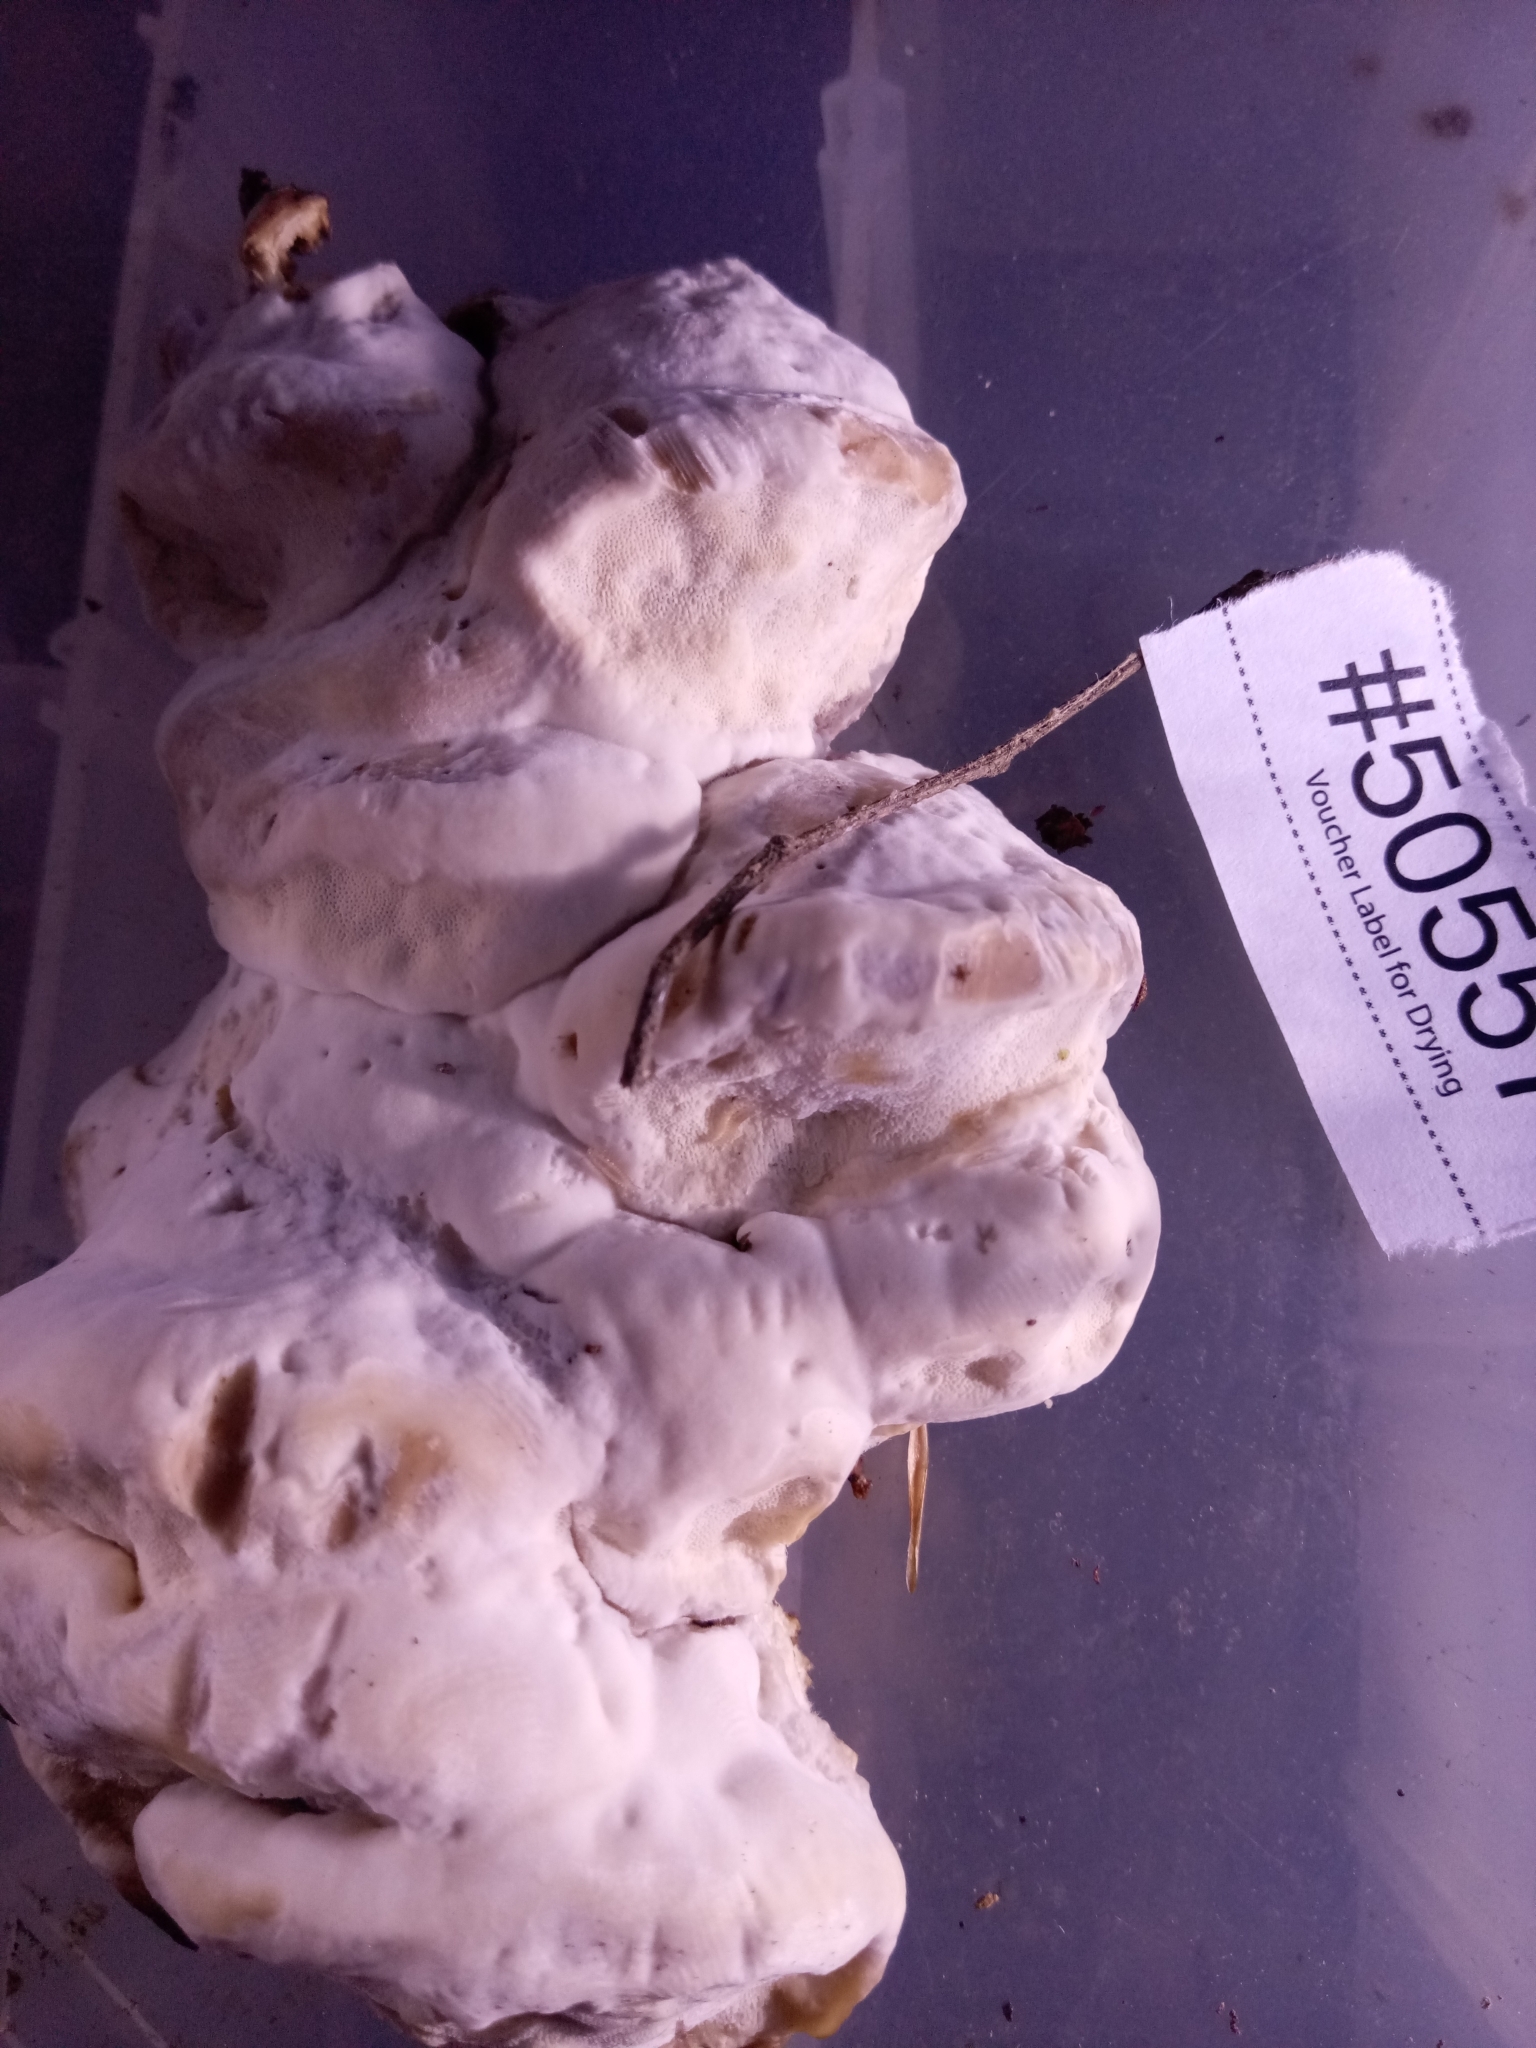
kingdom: Fungi
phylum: Basidiomycota
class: Agaricomycetes
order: Polyporales
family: Polyporaceae
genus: Vanderbylia
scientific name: Vanderbylia robiniophila
